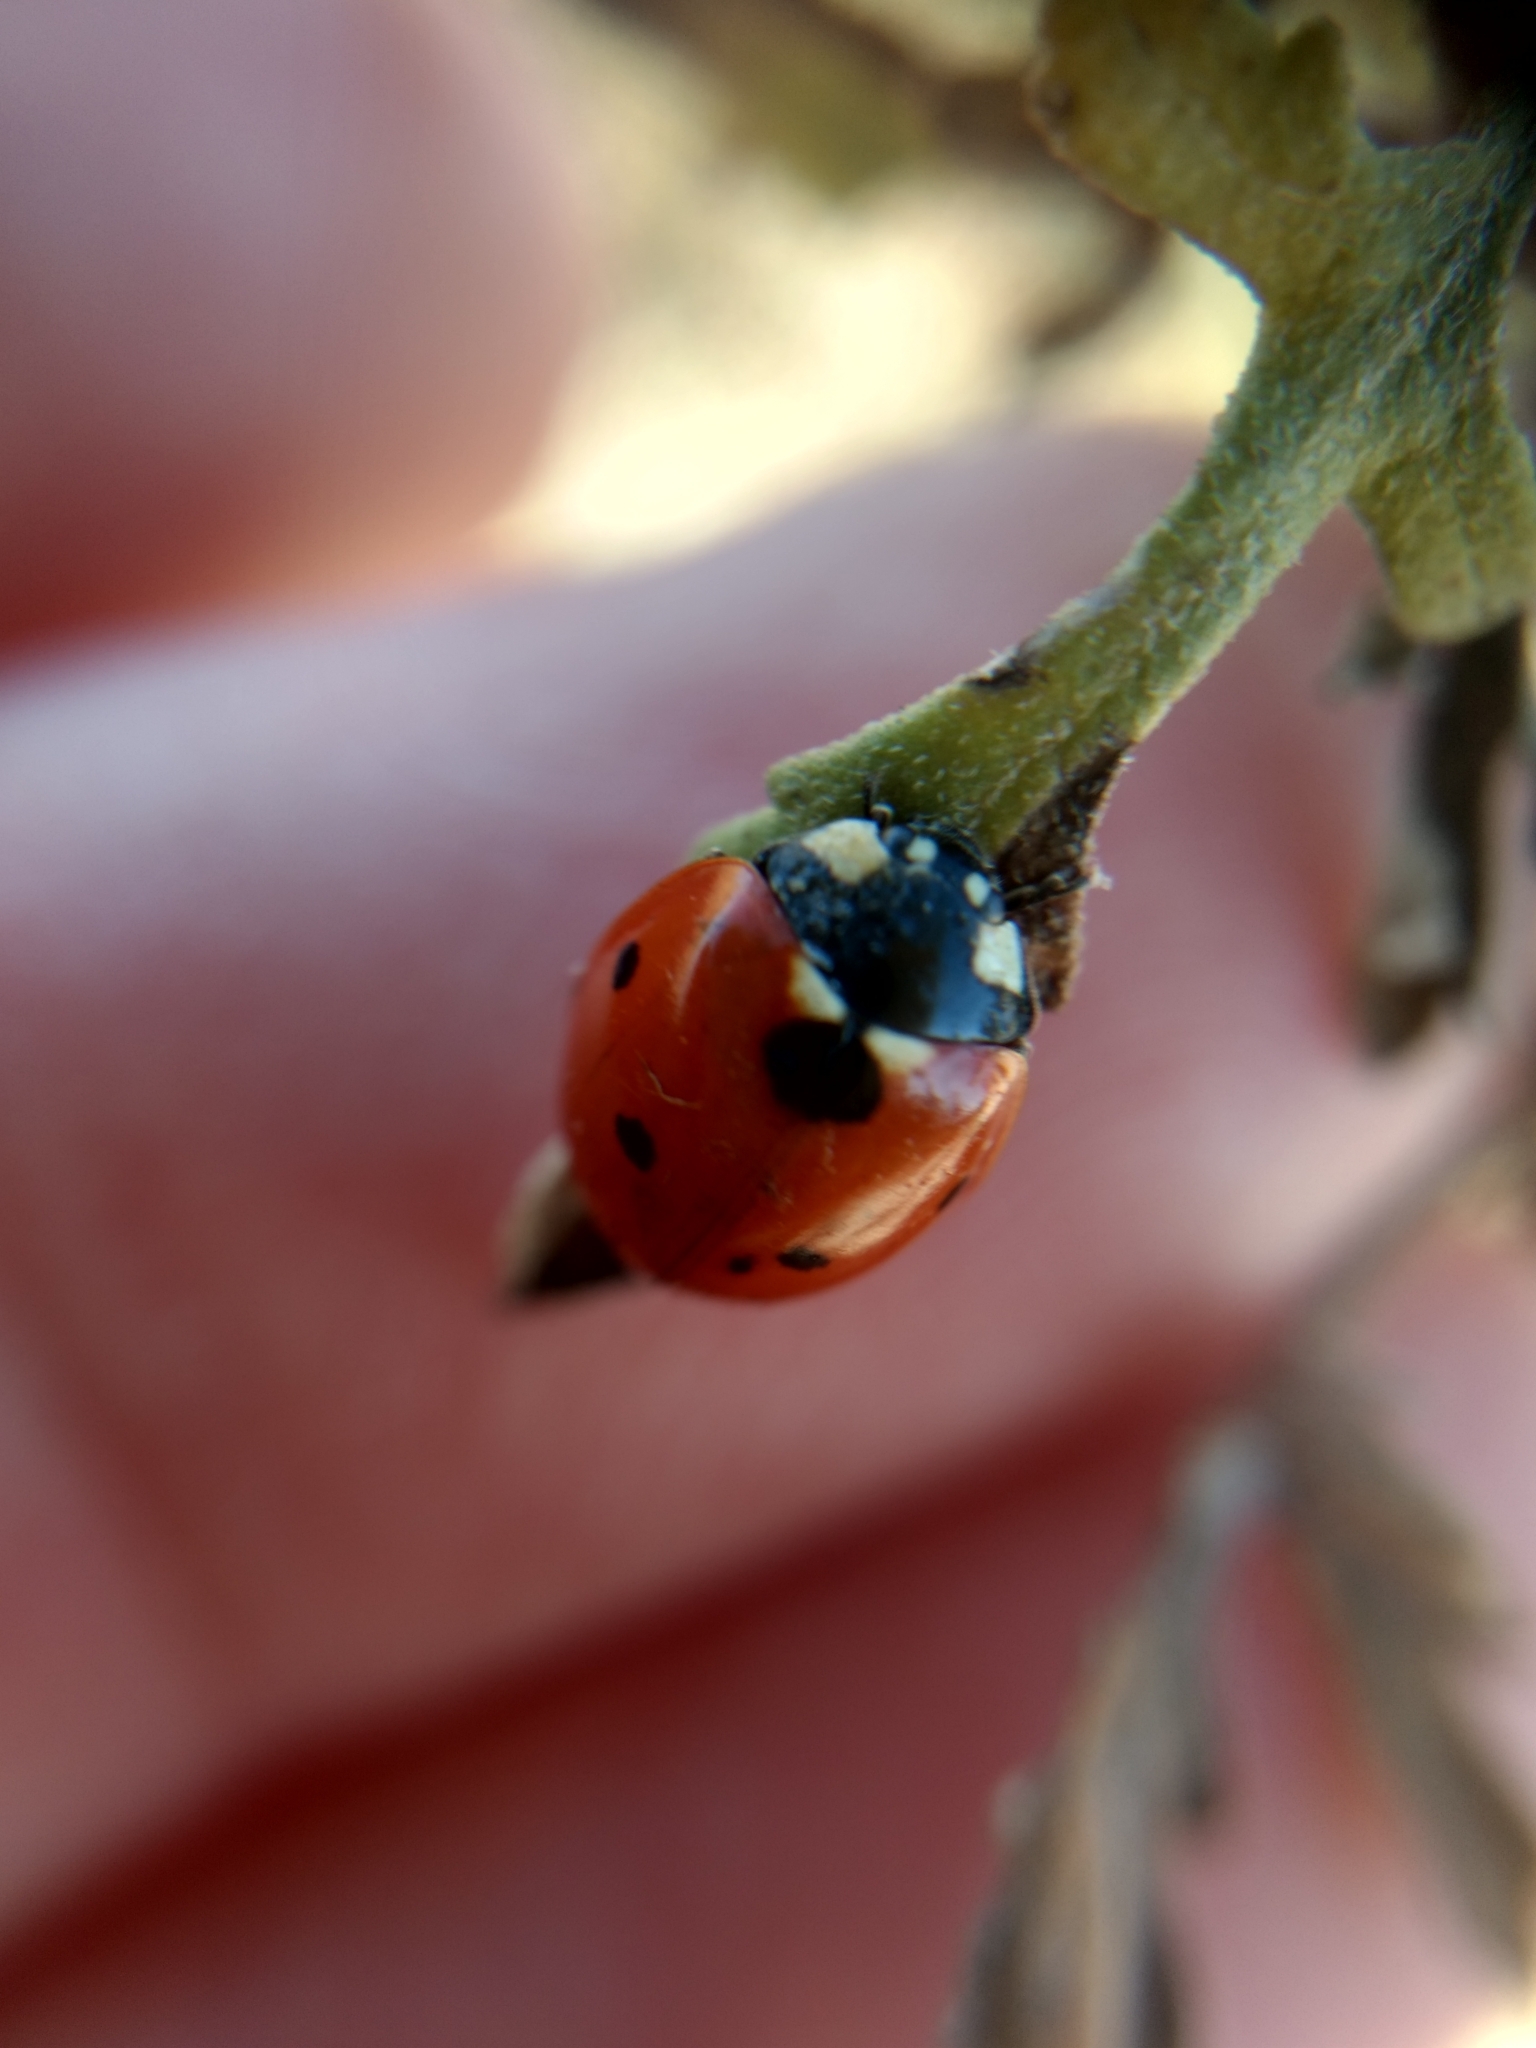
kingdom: Animalia
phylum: Arthropoda
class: Insecta
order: Coleoptera
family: Coccinellidae
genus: Coccinella
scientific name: Coccinella septempunctata
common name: Sevenspotted lady beetle
